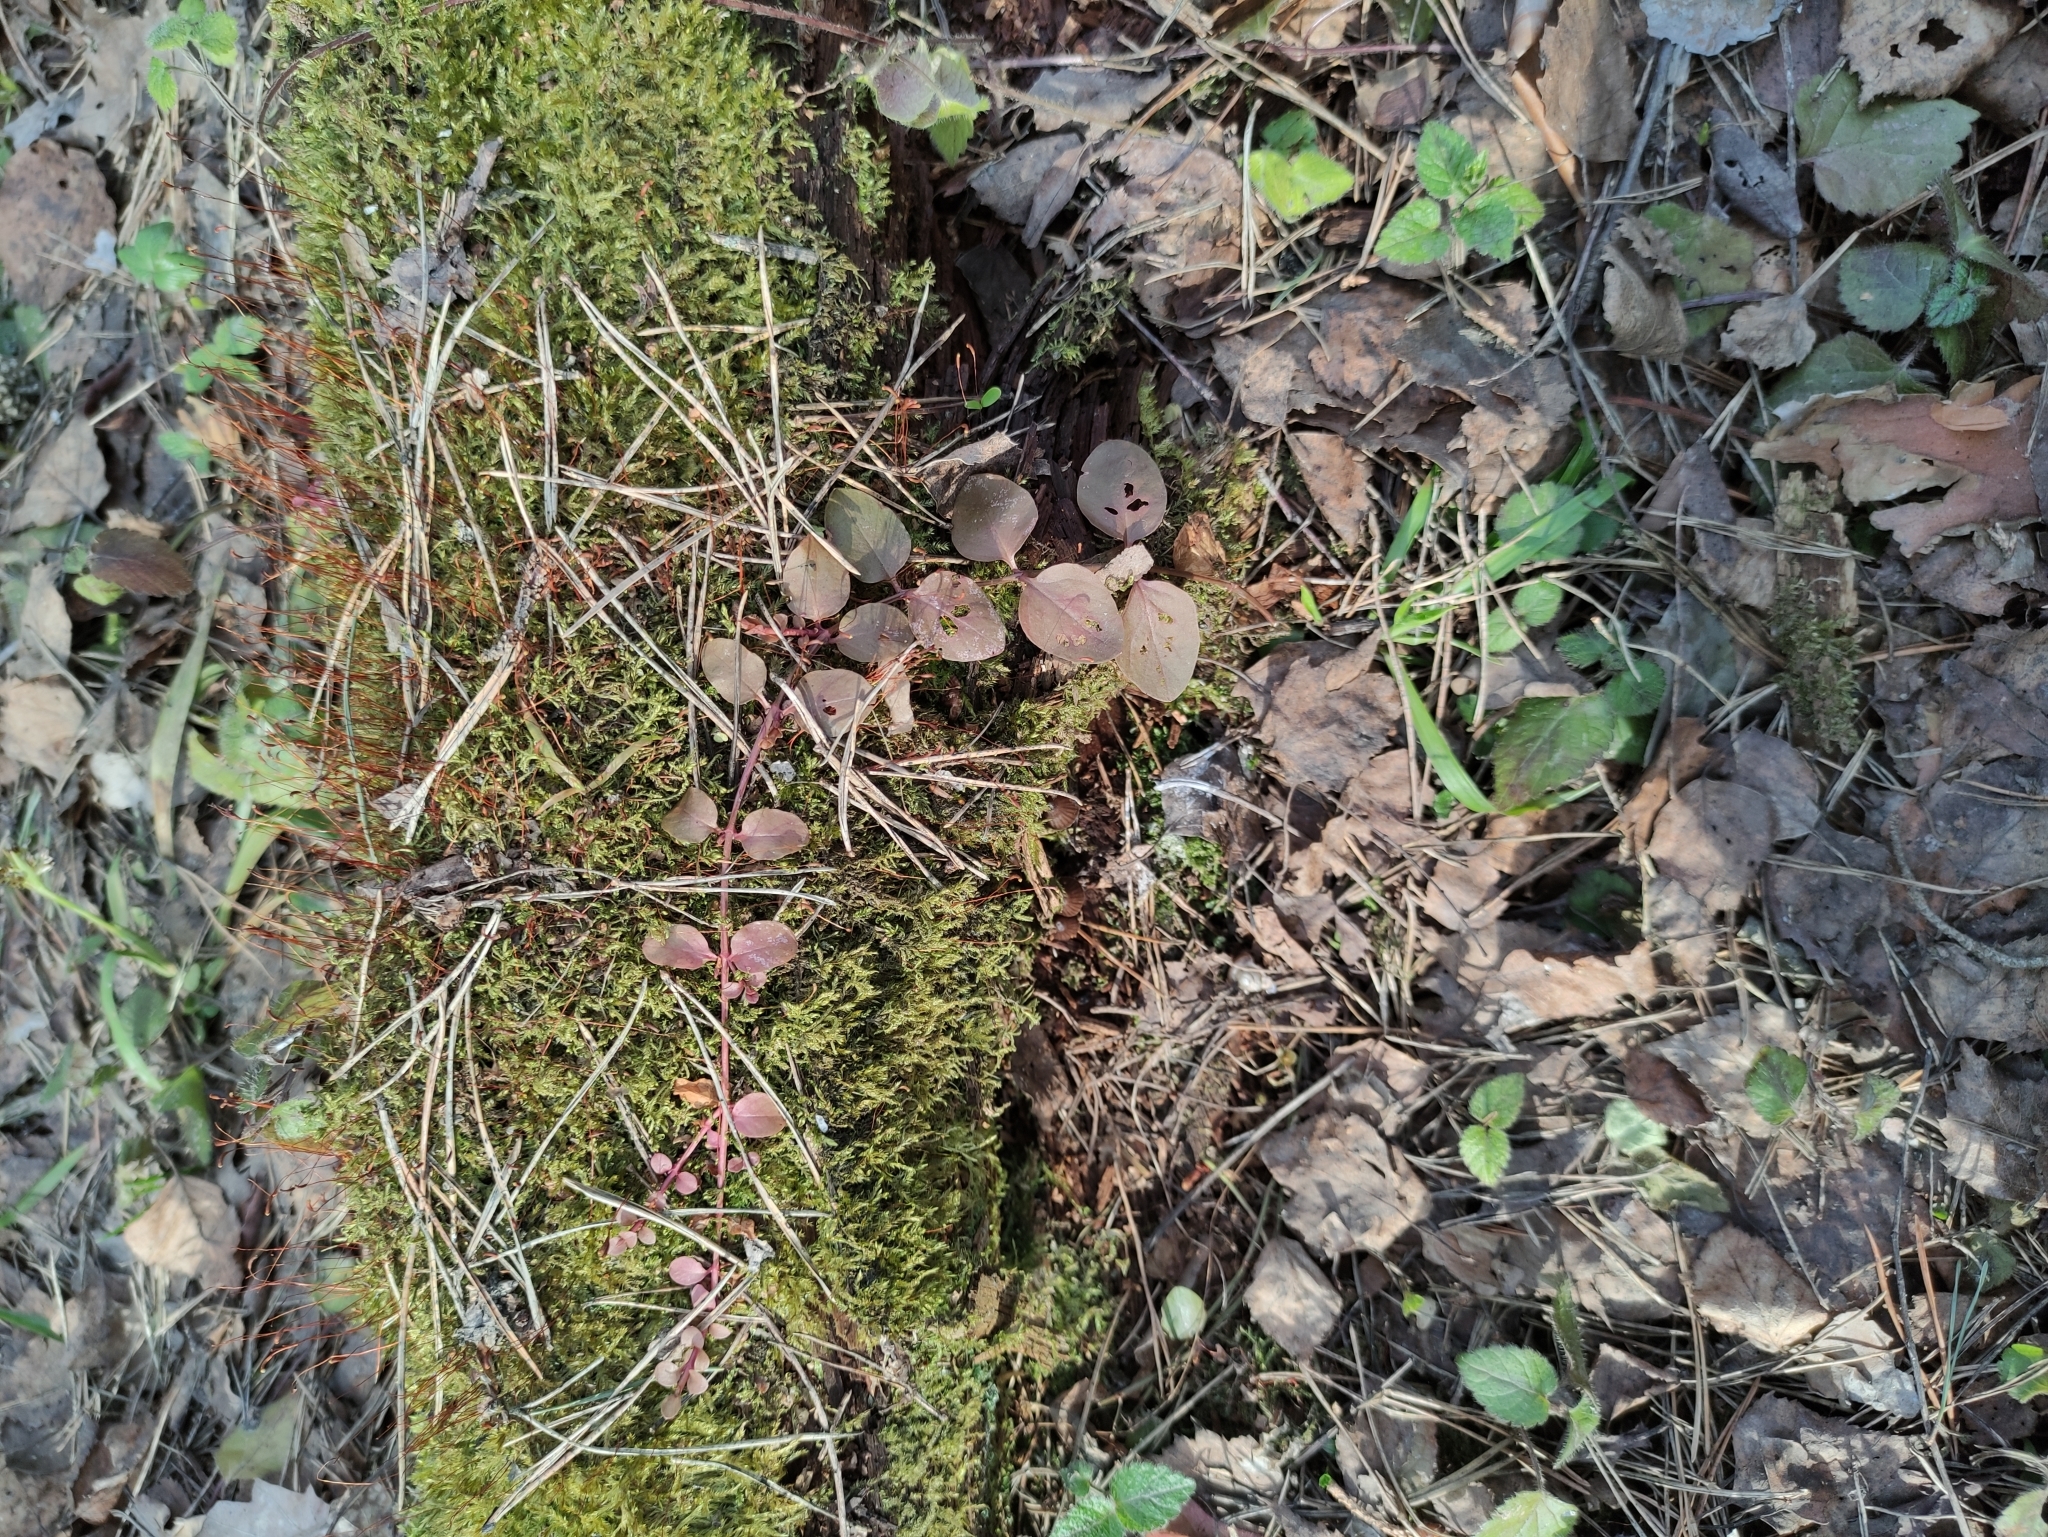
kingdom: Plantae
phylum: Tracheophyta
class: Magnoliopsida
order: Ericales
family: Primulaceae
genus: Lysimachia
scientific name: Lysimachia nummularia
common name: Moneywort
